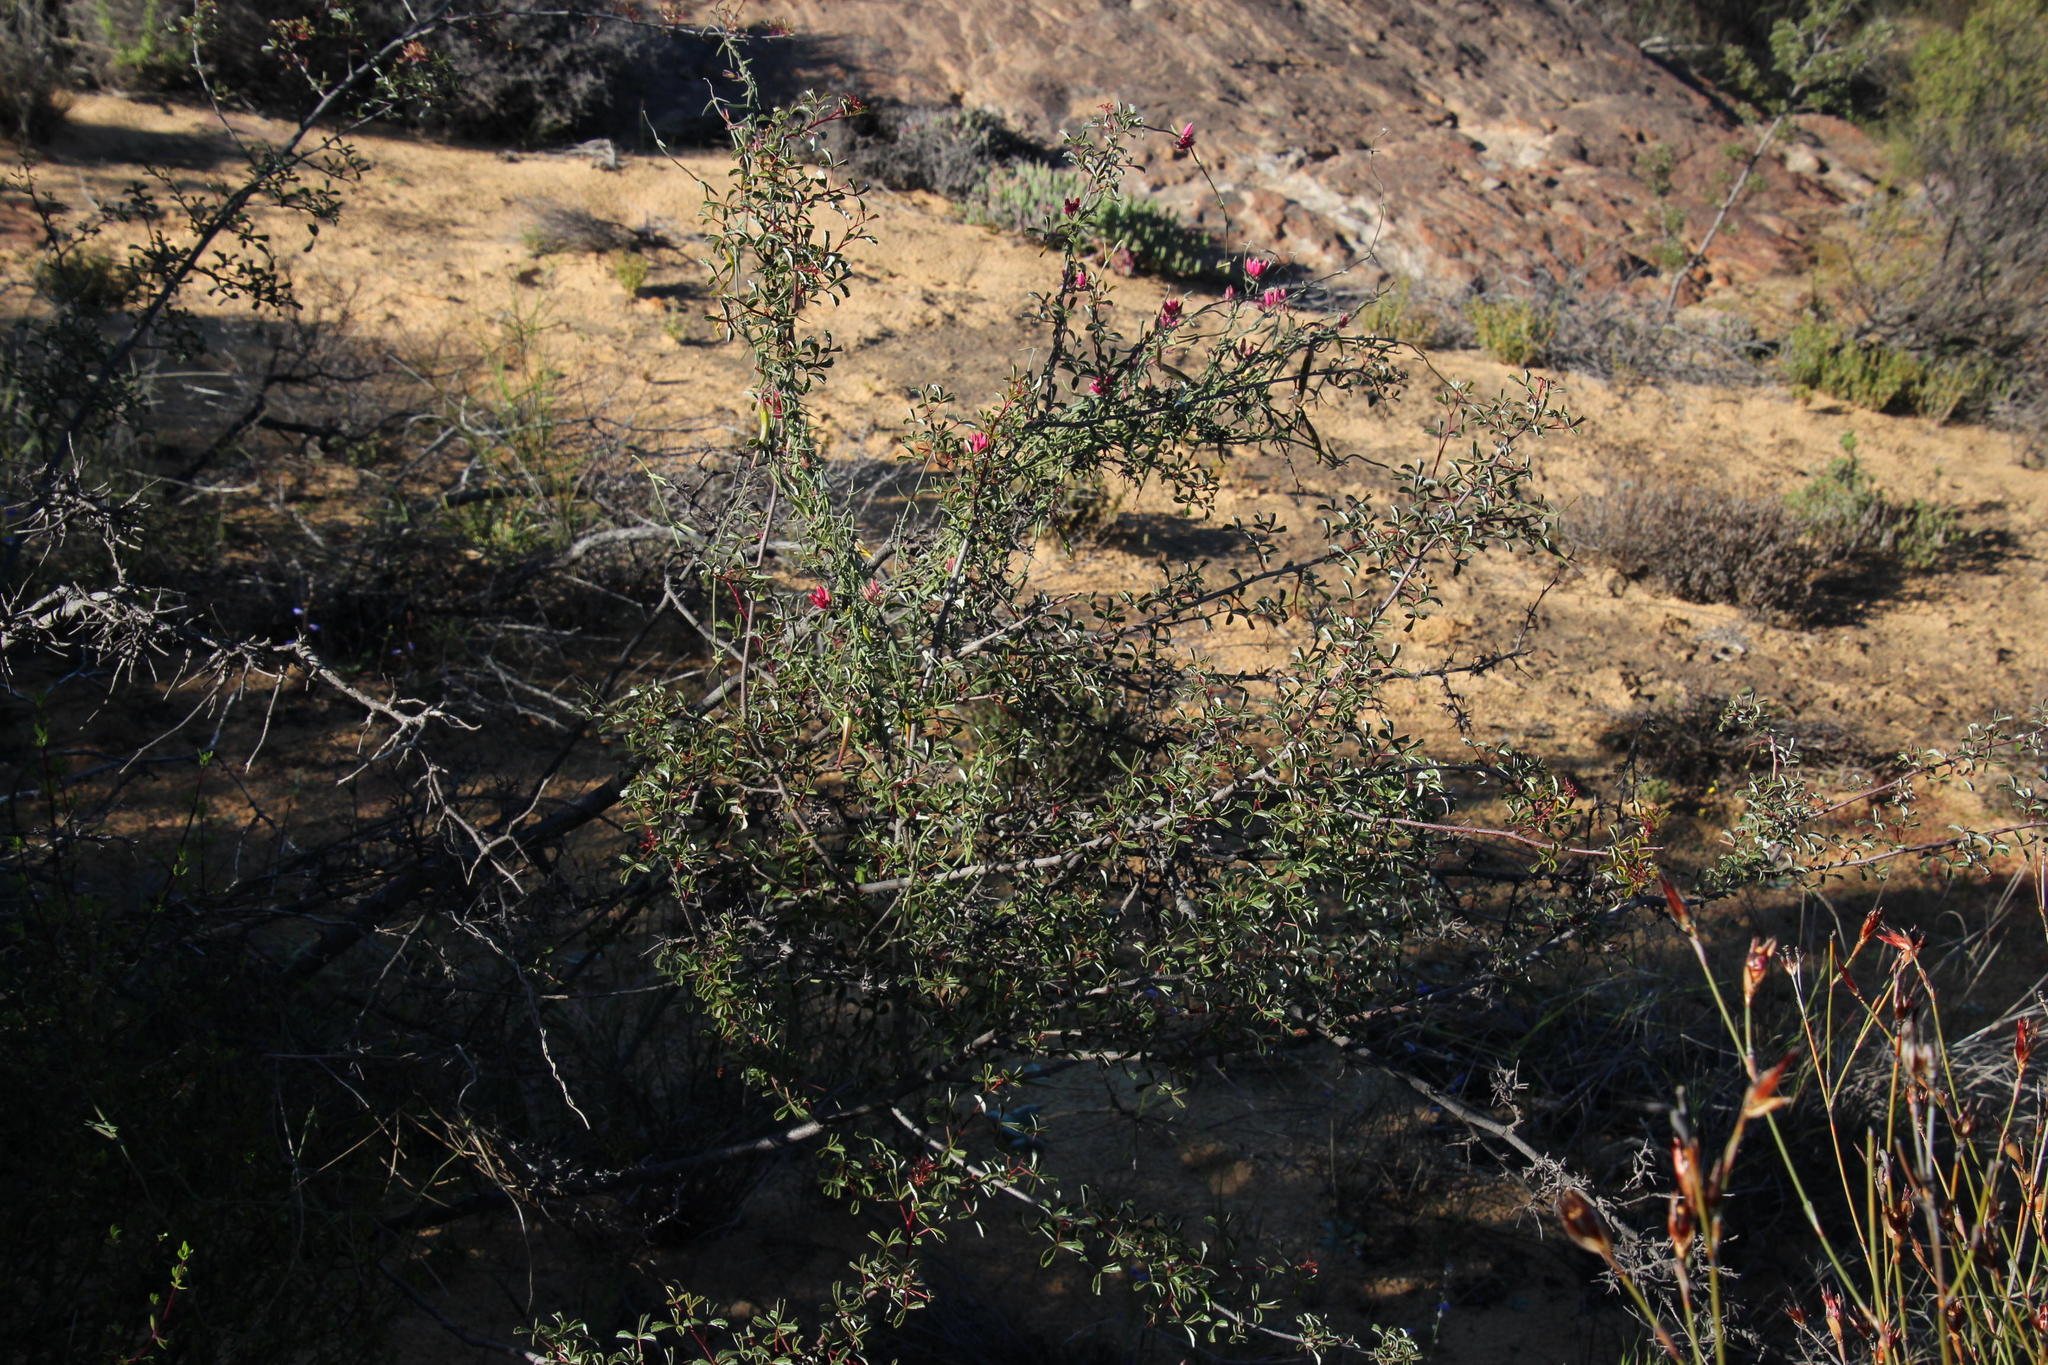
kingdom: Plantae
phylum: Tracheophyta
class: Magnoliopsida
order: Sapindales
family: Anacardiaceae
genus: Searsia
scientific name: Searsia dissecta
